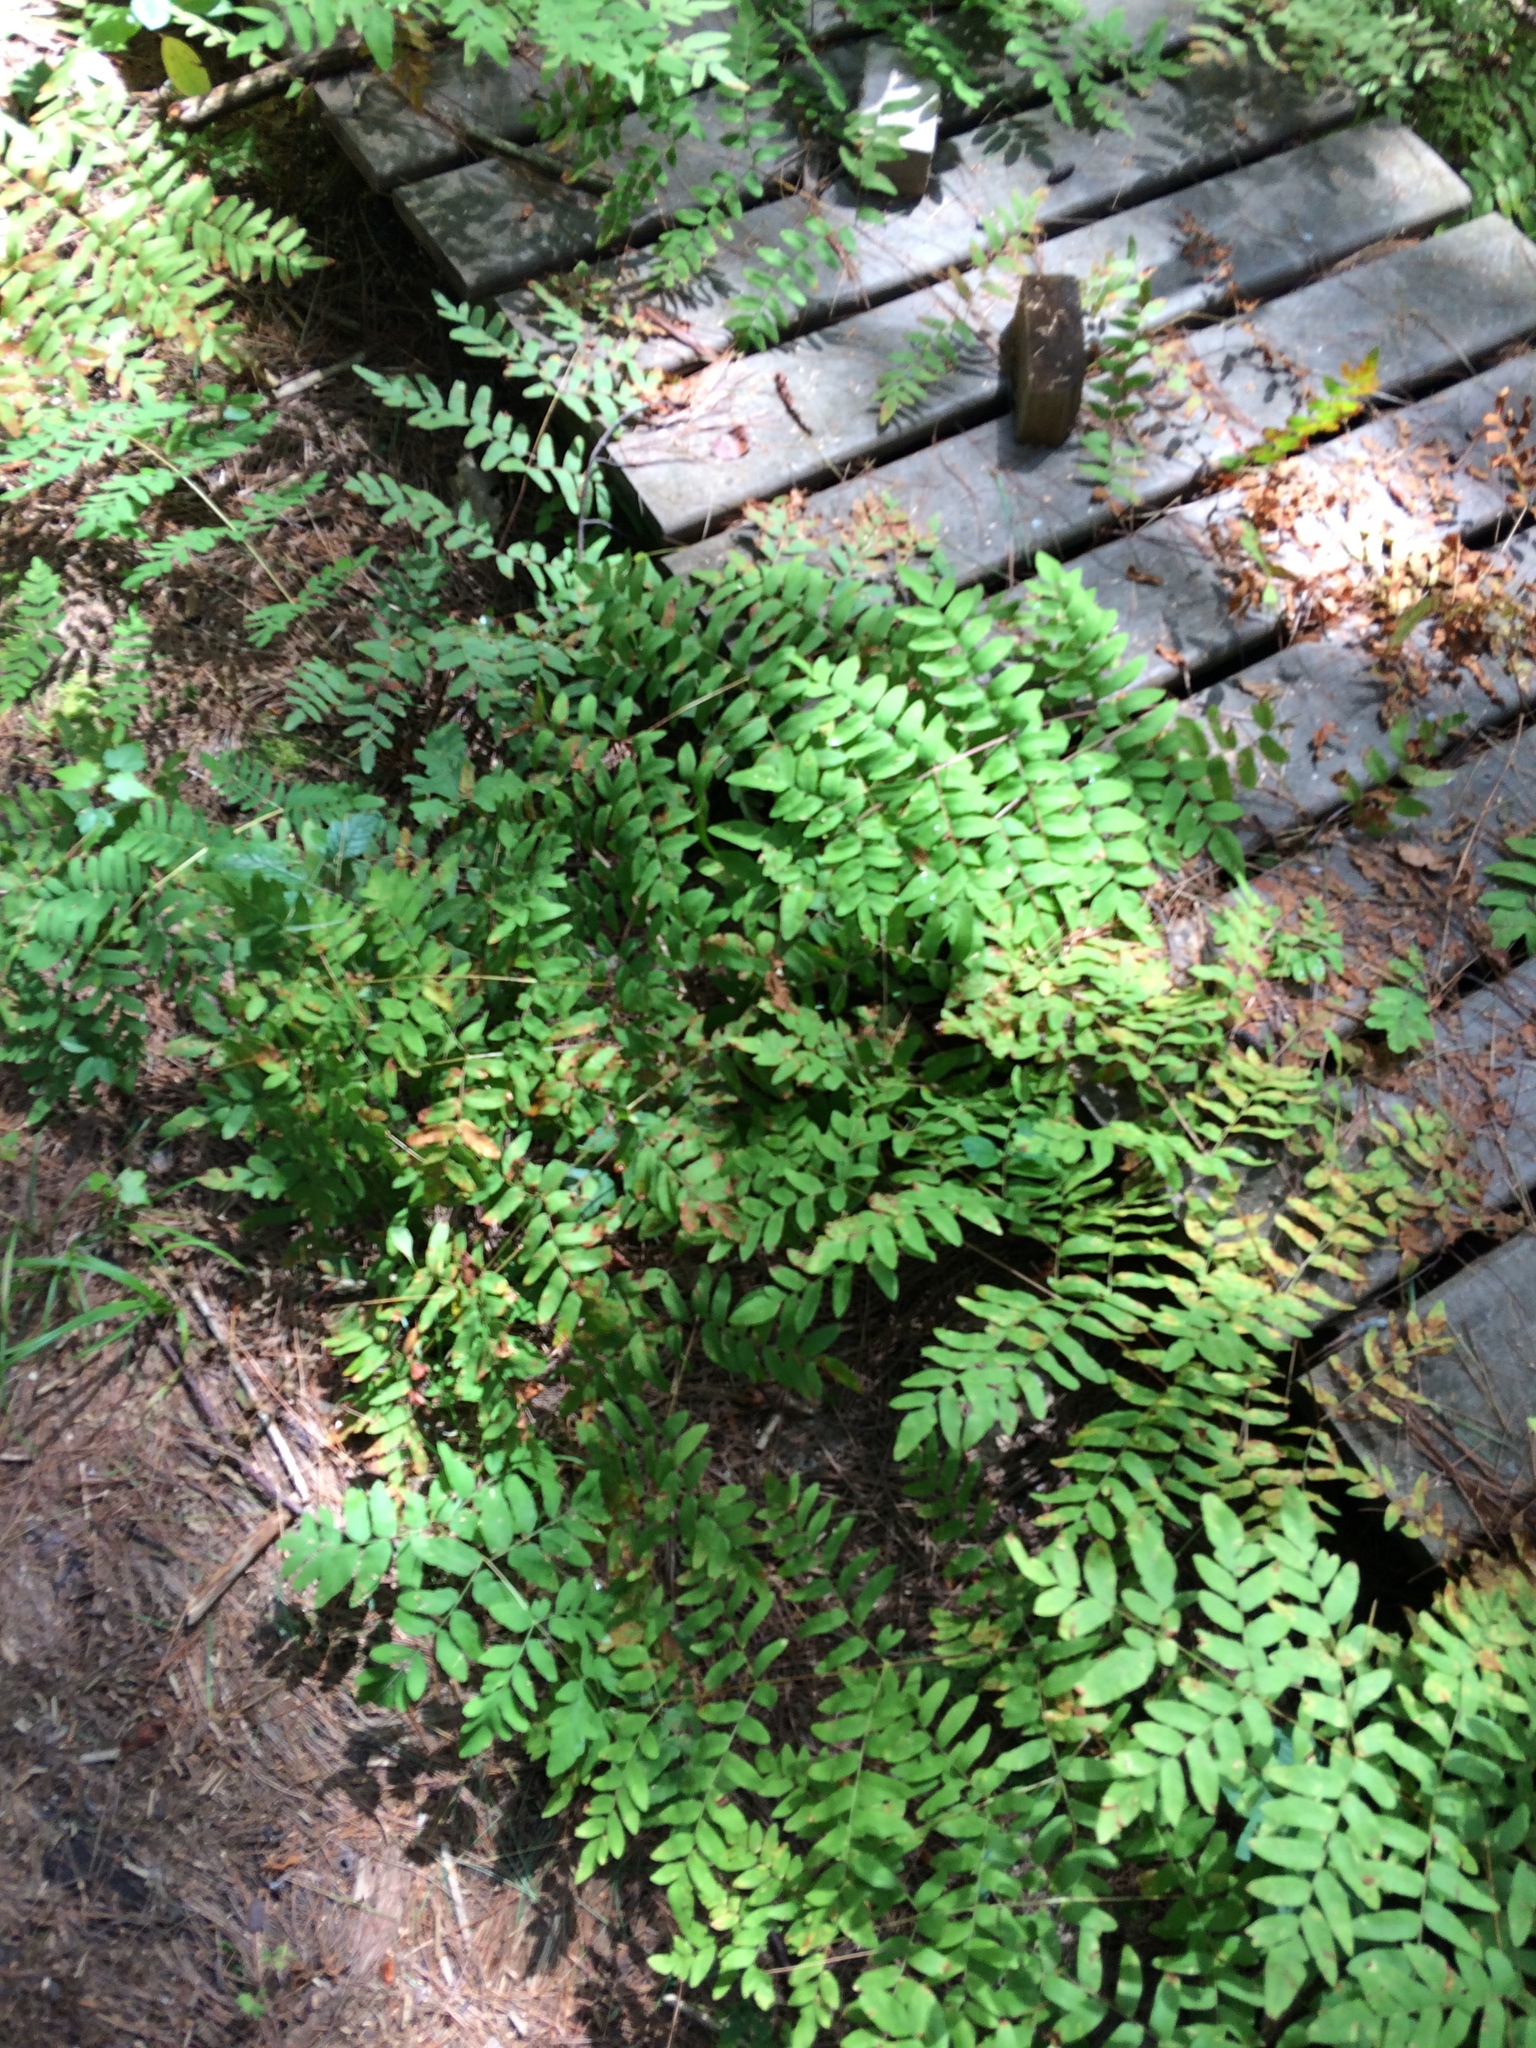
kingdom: Plantae
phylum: Tracheophyta
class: Polypodiopsida
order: Osmundales
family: Osmundaceae
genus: Osmunda
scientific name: Osmunda spectabilis
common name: American royal fern
